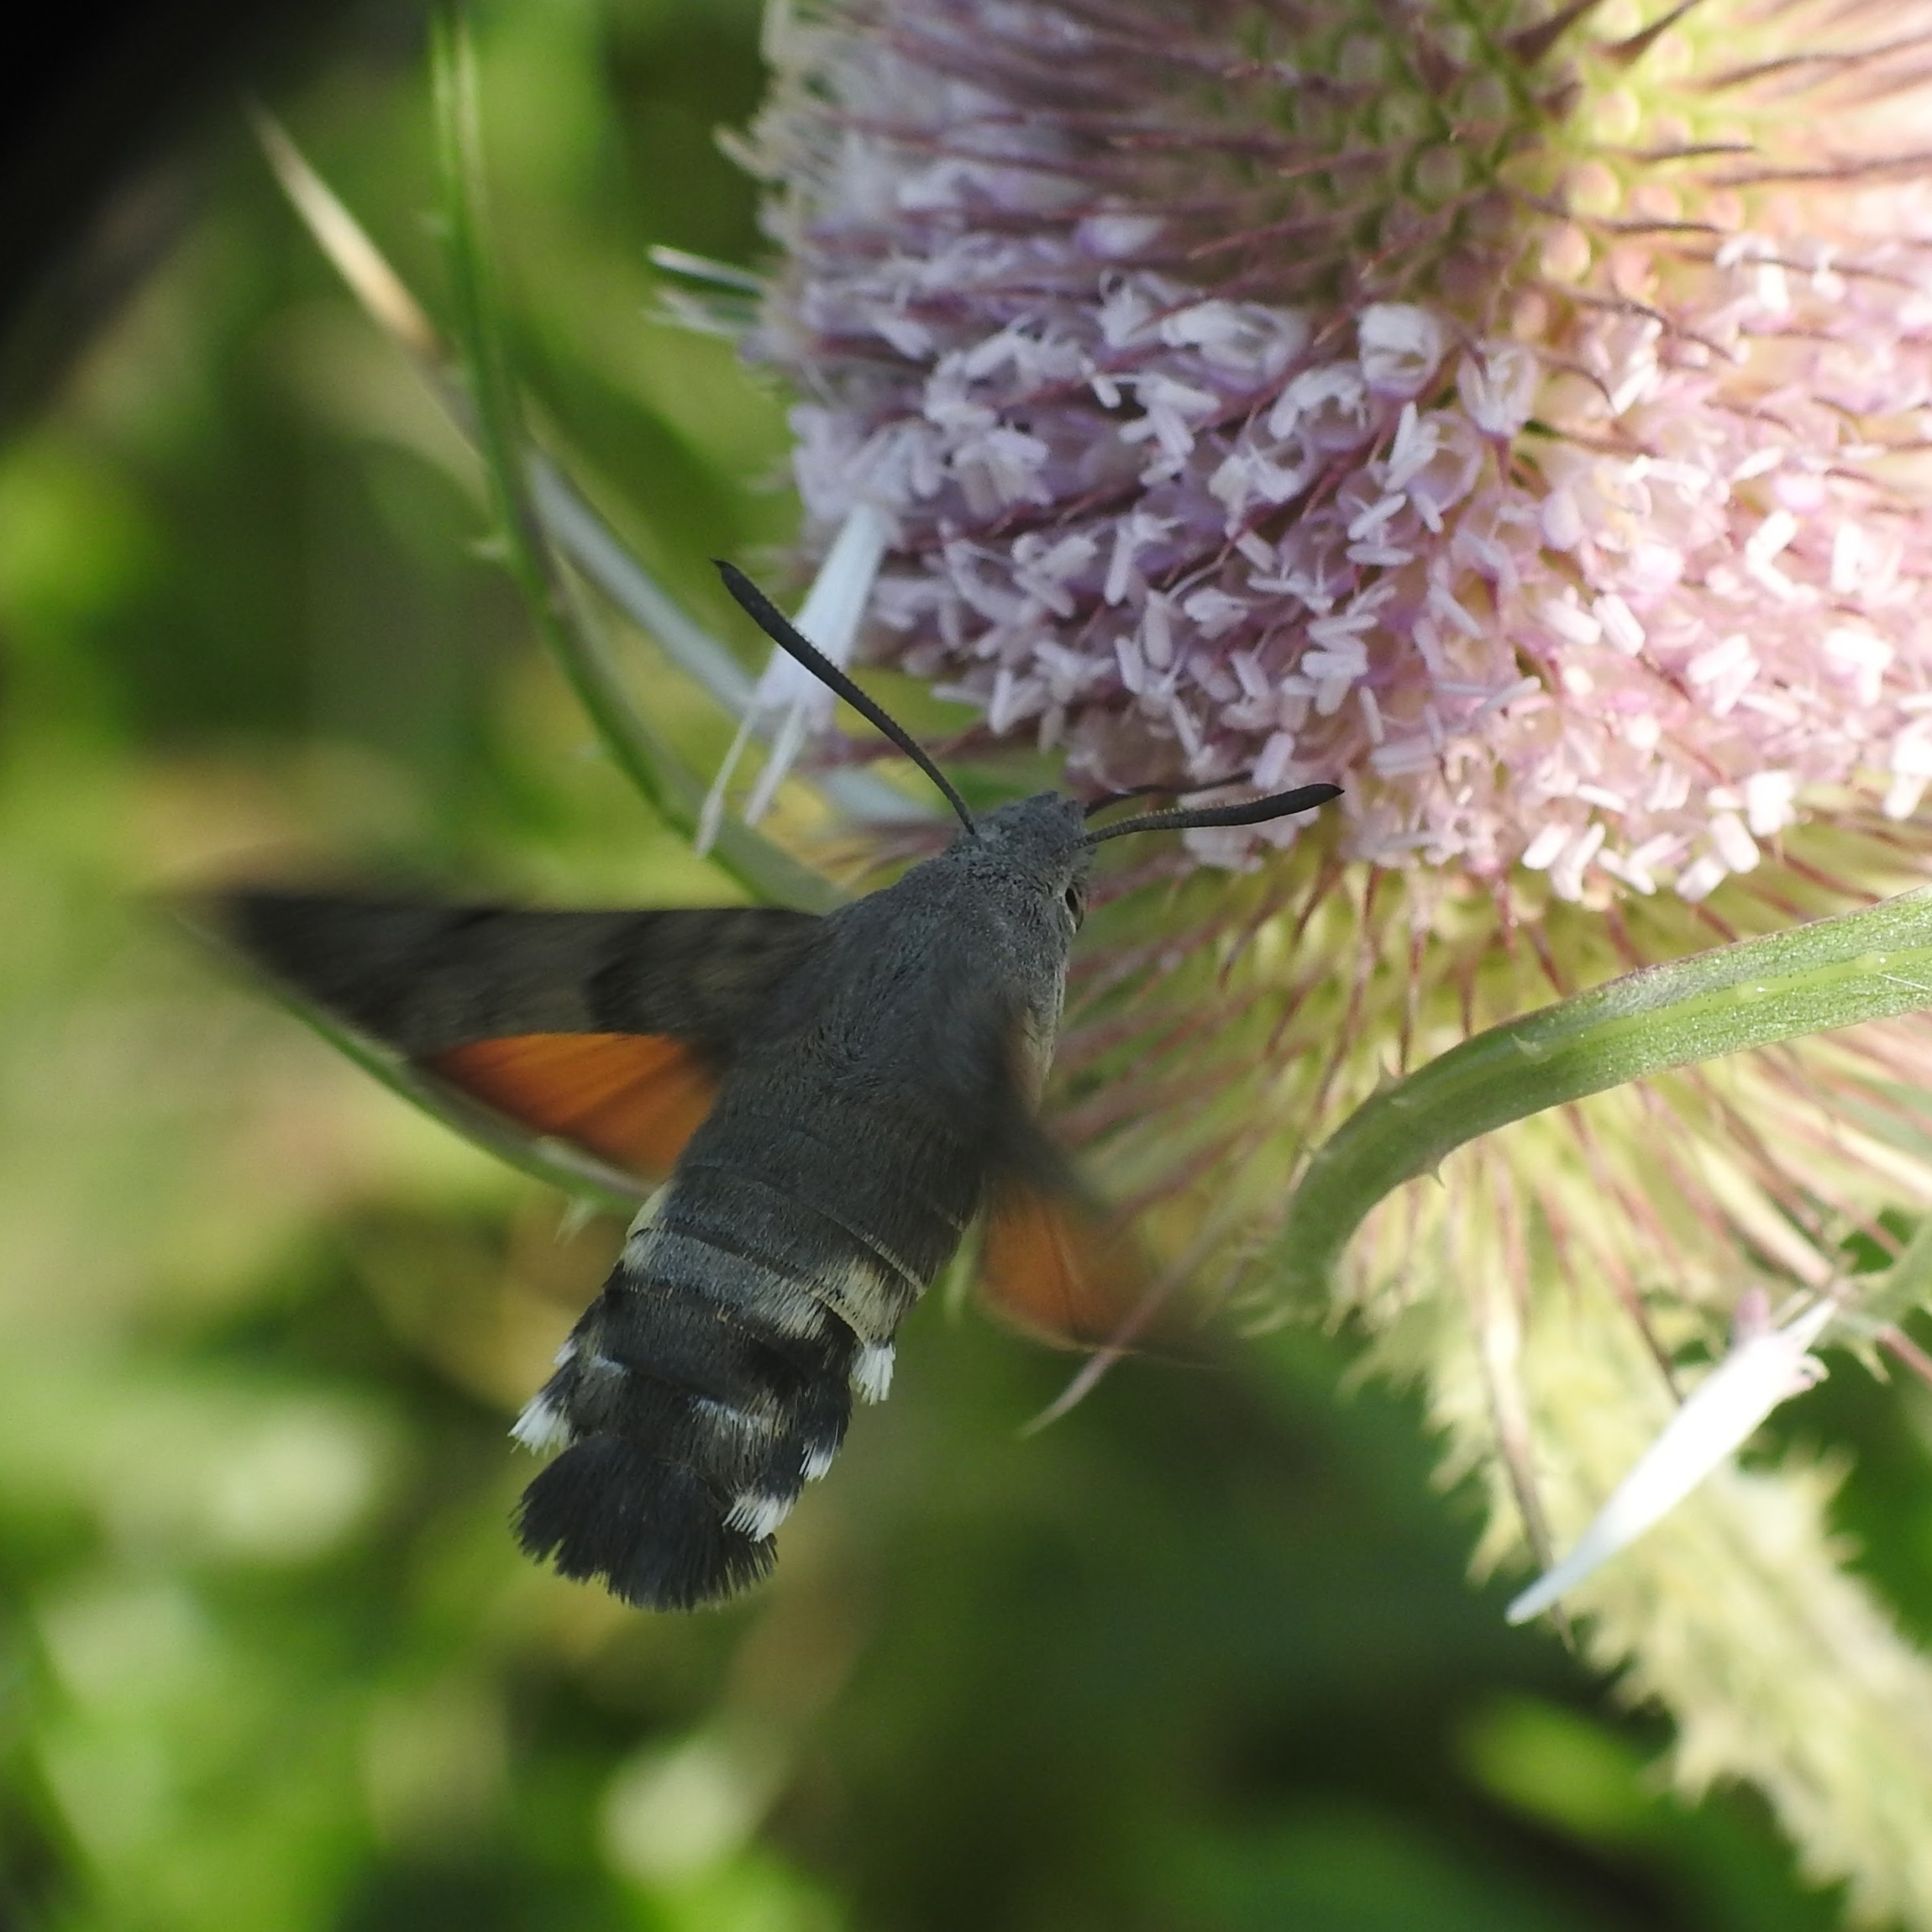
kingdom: Animalia
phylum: Arthropoda
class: Insecta
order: Lepidoptera
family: Sphingidae
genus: Macroglossum
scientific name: Macroglossum stellatarum
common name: Humming-bird hawk-moth
